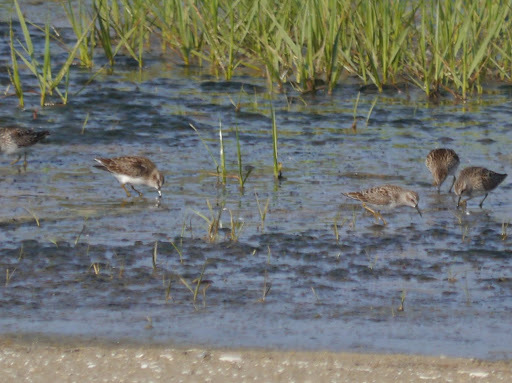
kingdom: Animalia
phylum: Chordata
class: Aves
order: Charadriiformes
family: Scolopacidae
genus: Calidris
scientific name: Calidris minutilla
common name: Least sandpiper
